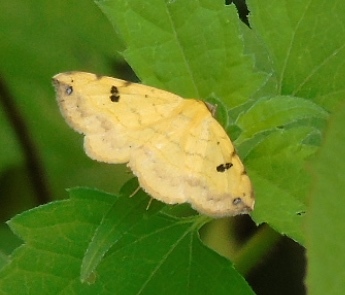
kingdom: Animalia
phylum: Arthropoda
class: Insecta
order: Lepidoptera
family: Erebidae
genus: Hemeroplanis
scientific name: Hemeroplanis
